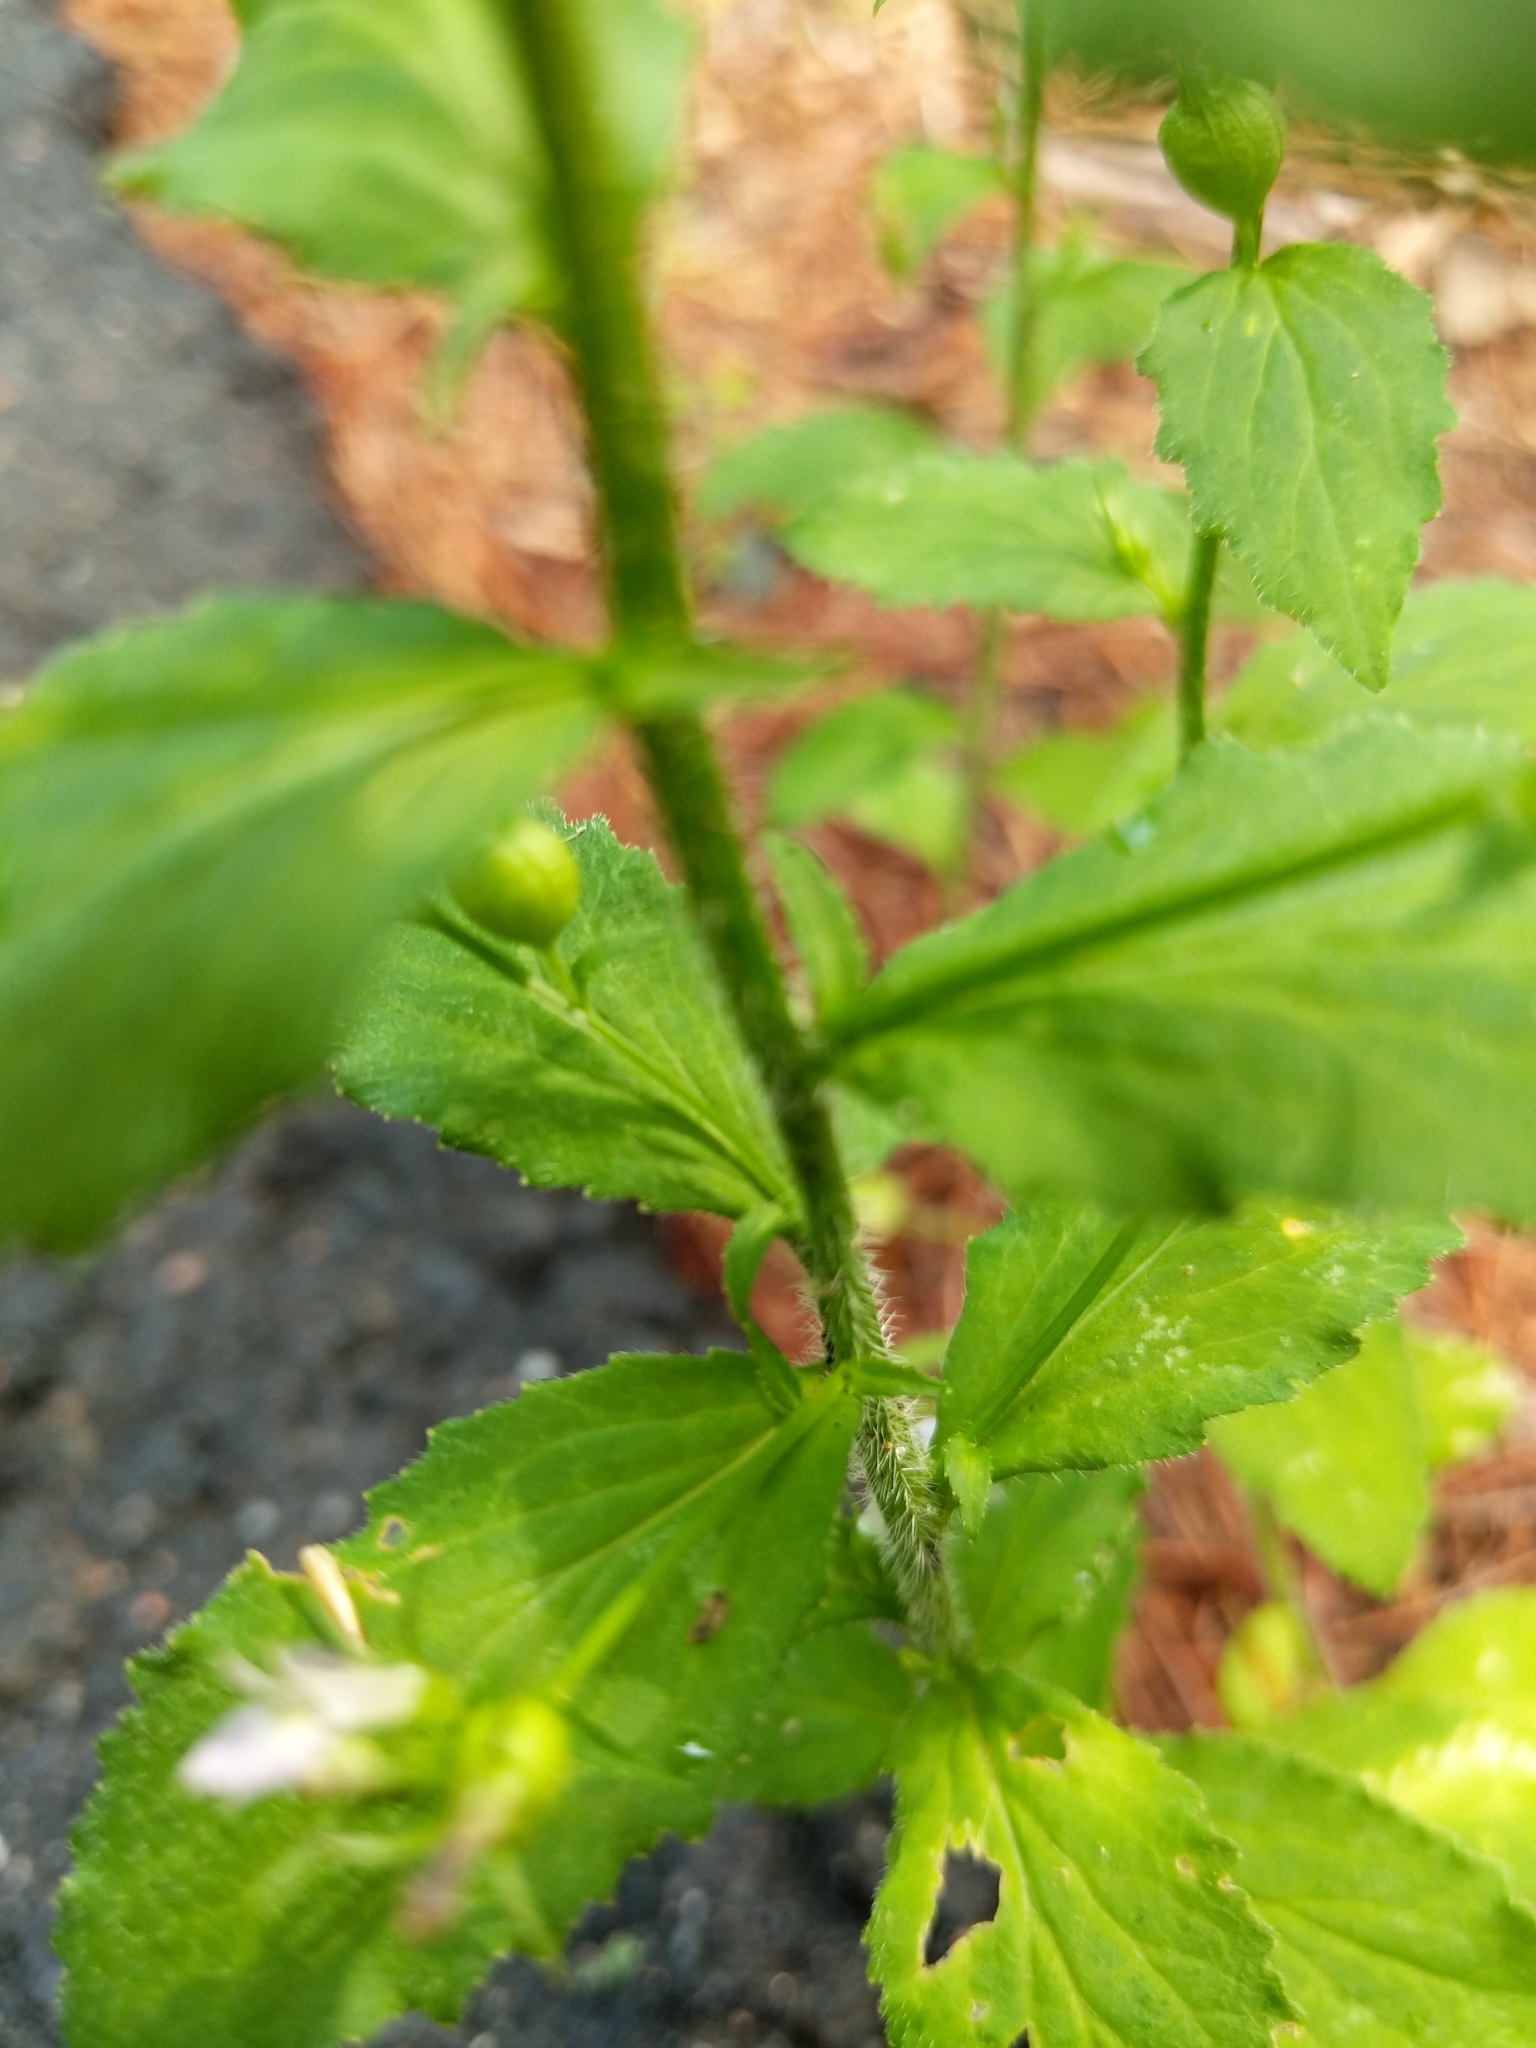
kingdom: Plantae
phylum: Tracheophyta
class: Magnoliopsida
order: Asterales
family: Campanulaceae
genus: Lobelia
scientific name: Lobelia inflata
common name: Indian tobacco
